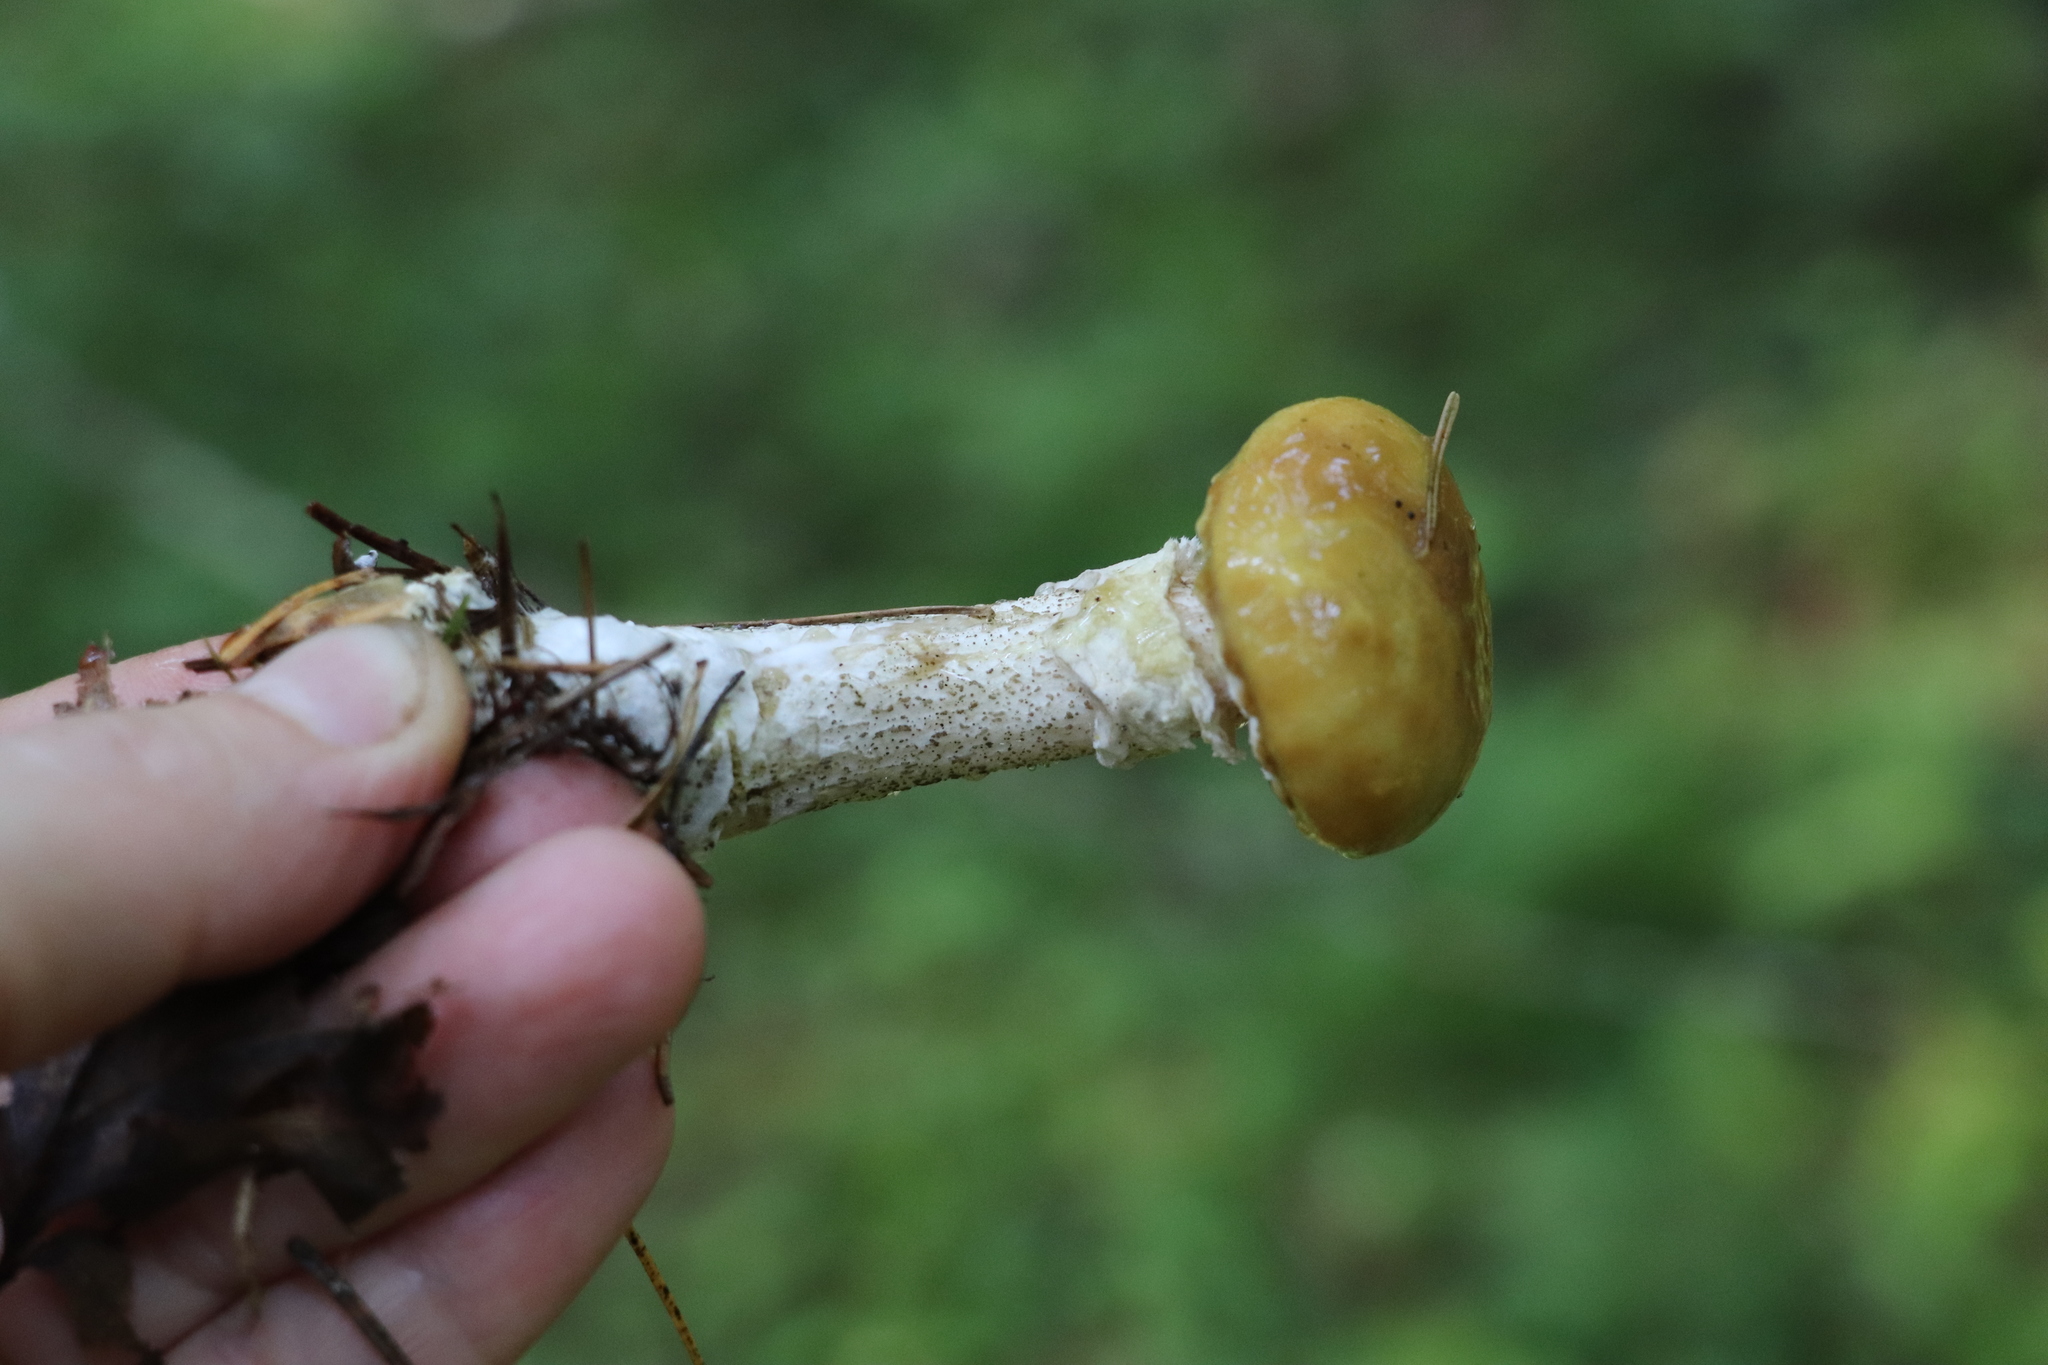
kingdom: Fungi
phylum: Basidiomycota
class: Agaricomycetes
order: Boletales
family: Suillaceae
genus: Suillus
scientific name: Suillus acidus
